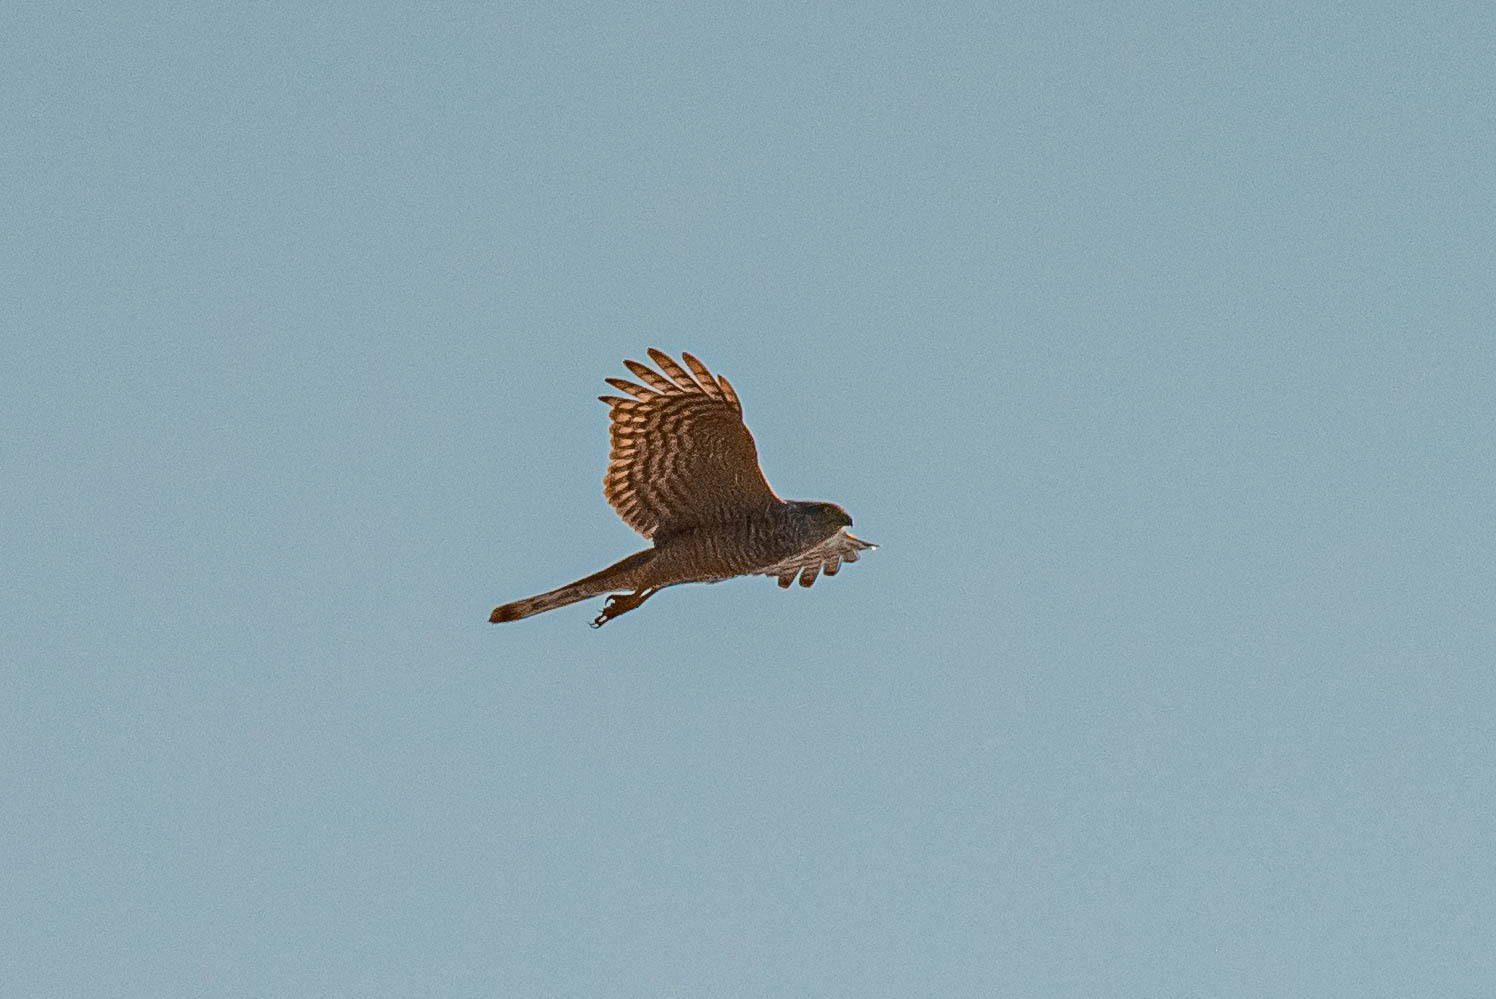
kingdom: Animalia
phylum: Chordata
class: Aves
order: Accipitriformes
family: Accipitridae
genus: Accipiter
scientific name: Accipiter nisus
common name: Eurasian sparrowhawk
